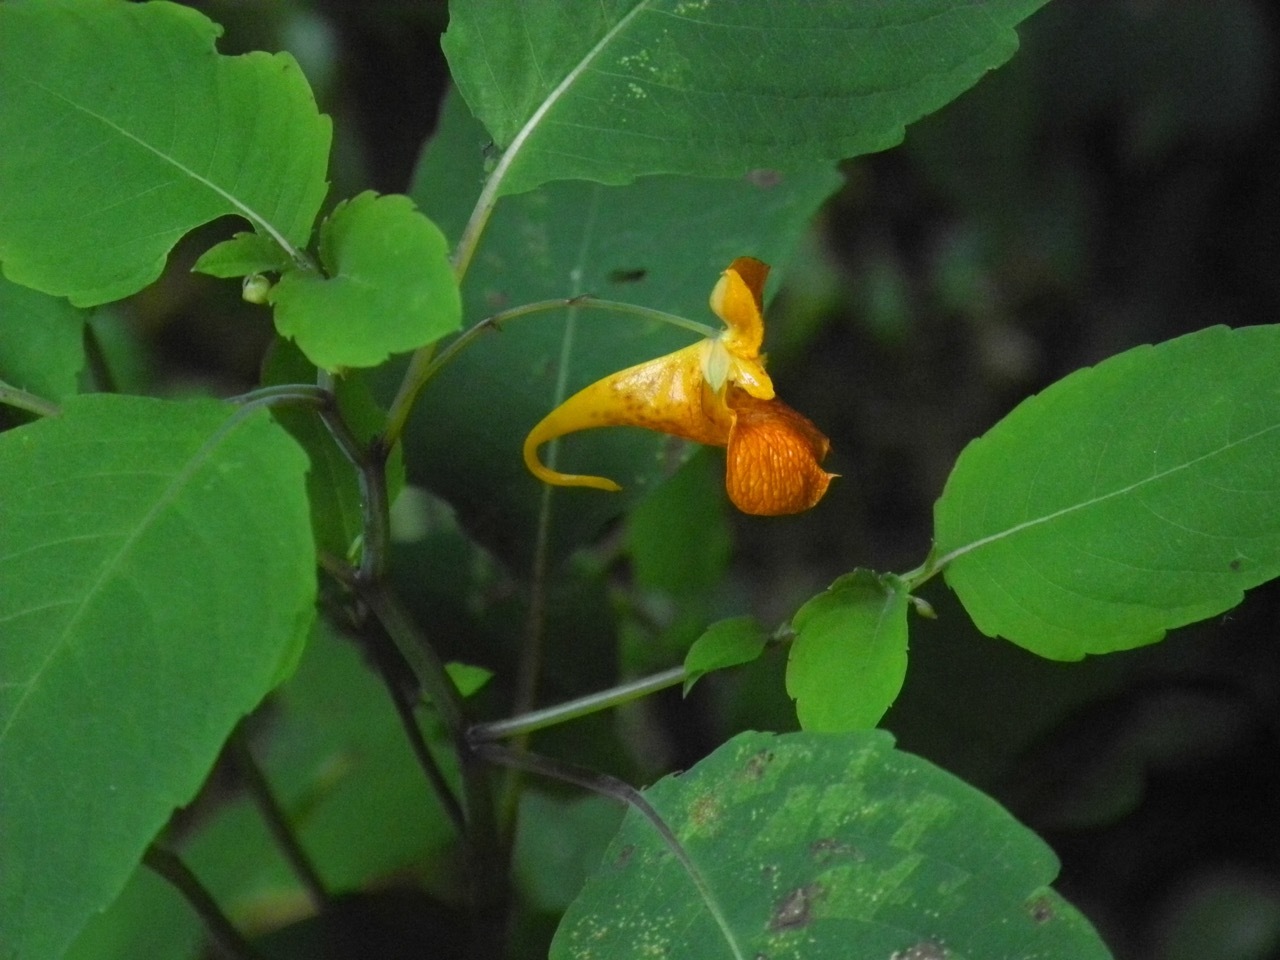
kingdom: Plantae
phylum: Tracheophyta
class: Magnoliopsida
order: Ericales
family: Balsaminaceae
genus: Impatiens
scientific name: Impatiens capensis
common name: Orange balsam
